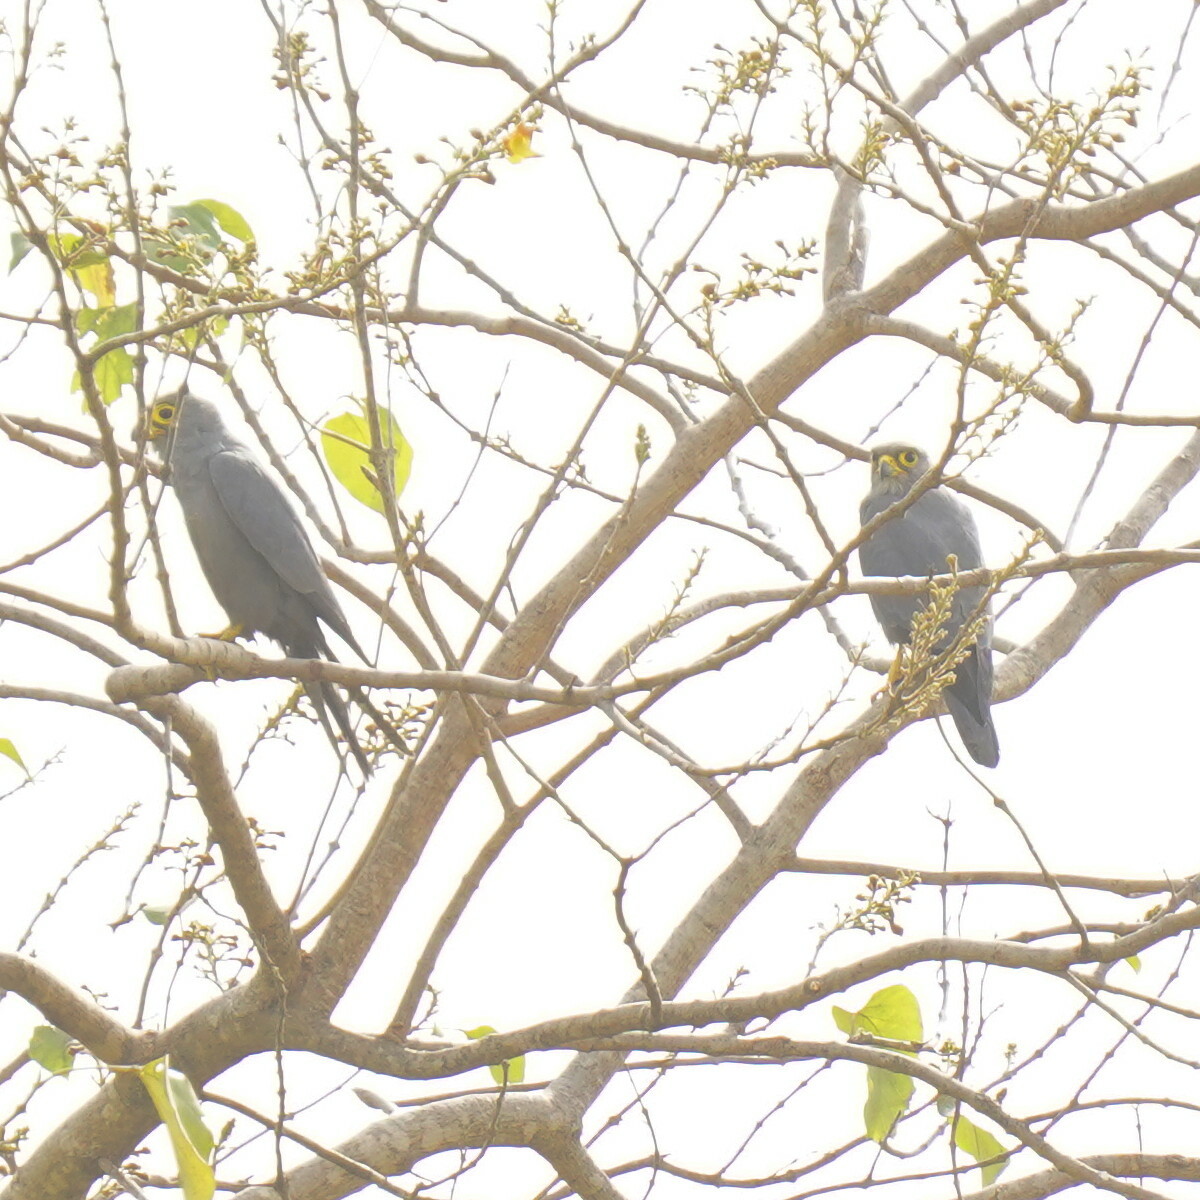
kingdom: Animalia
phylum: Chordata
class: Aves
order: Falconiformes
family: Falconidae
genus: Falco
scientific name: Falco ardosiaceus
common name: Grey kestrel
